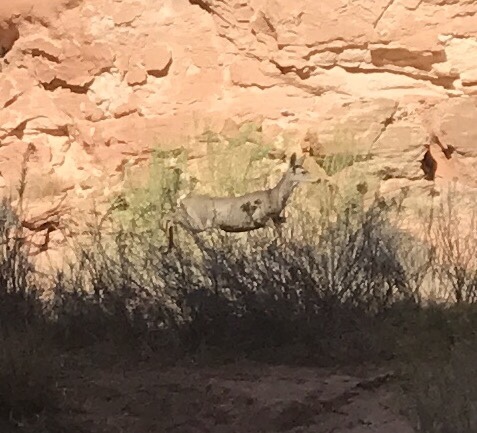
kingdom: Animalia
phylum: Chordata
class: Mammalia
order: Artiodactyla
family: Cervidae
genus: Odocoileus
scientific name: Odocoileus hemionus
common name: Mule deer
